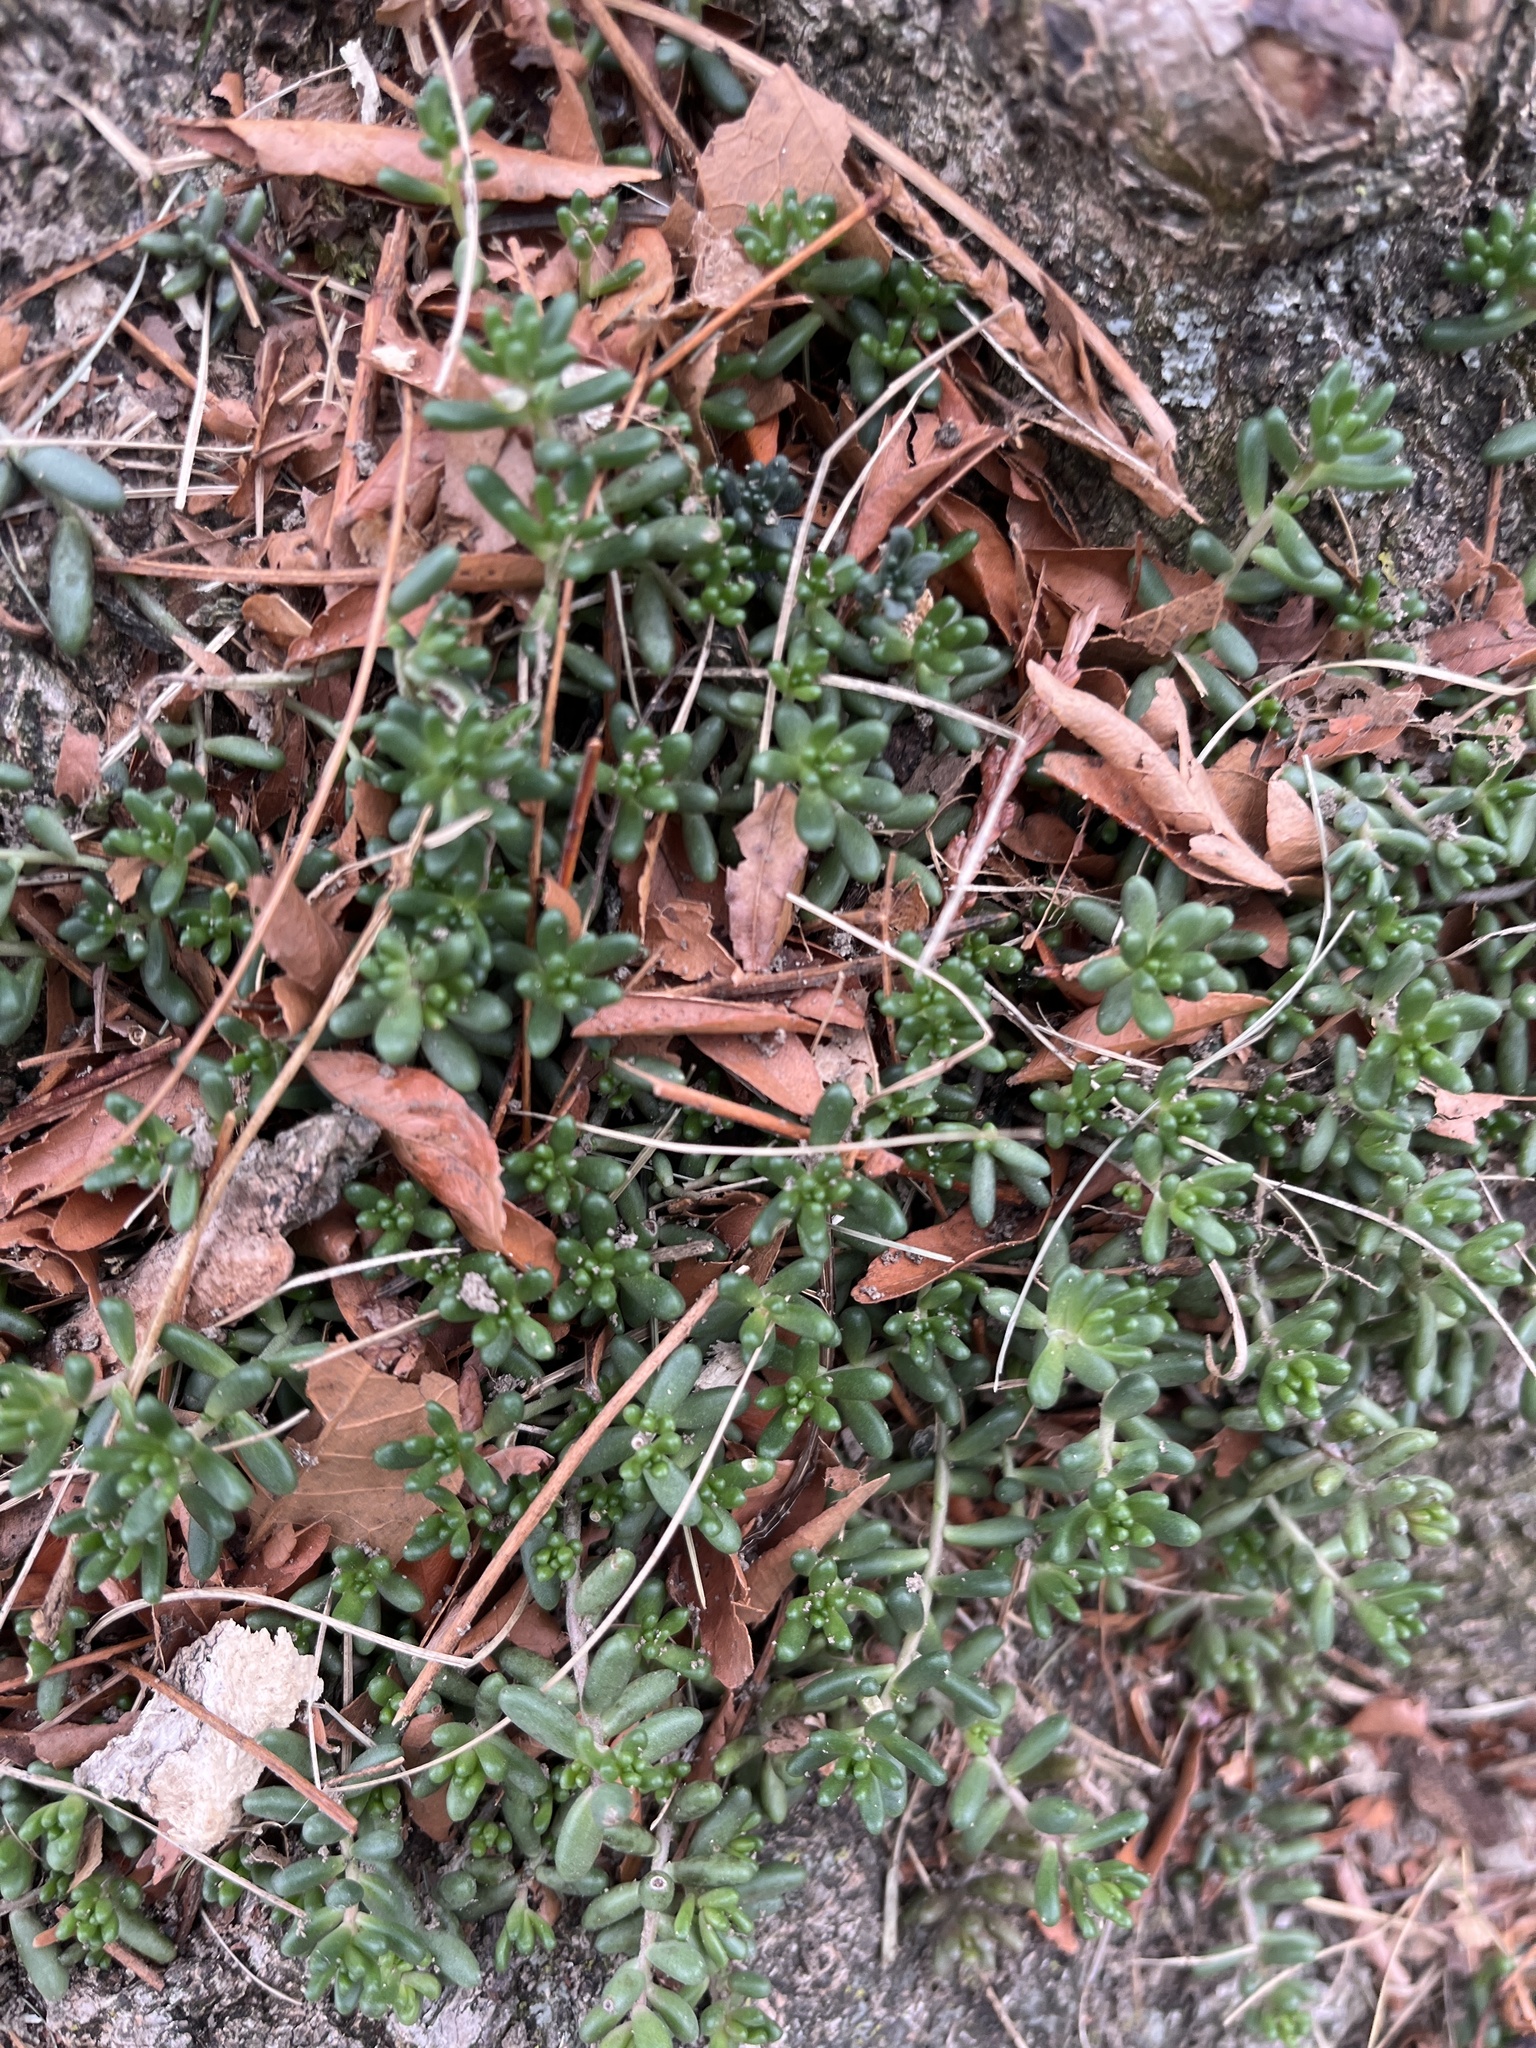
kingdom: Plantae
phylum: Tracheophyta
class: Magnoliopsida
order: Saxifragales
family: Crassulaceae
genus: Sedum
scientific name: Sedum album
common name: White stonecrop
